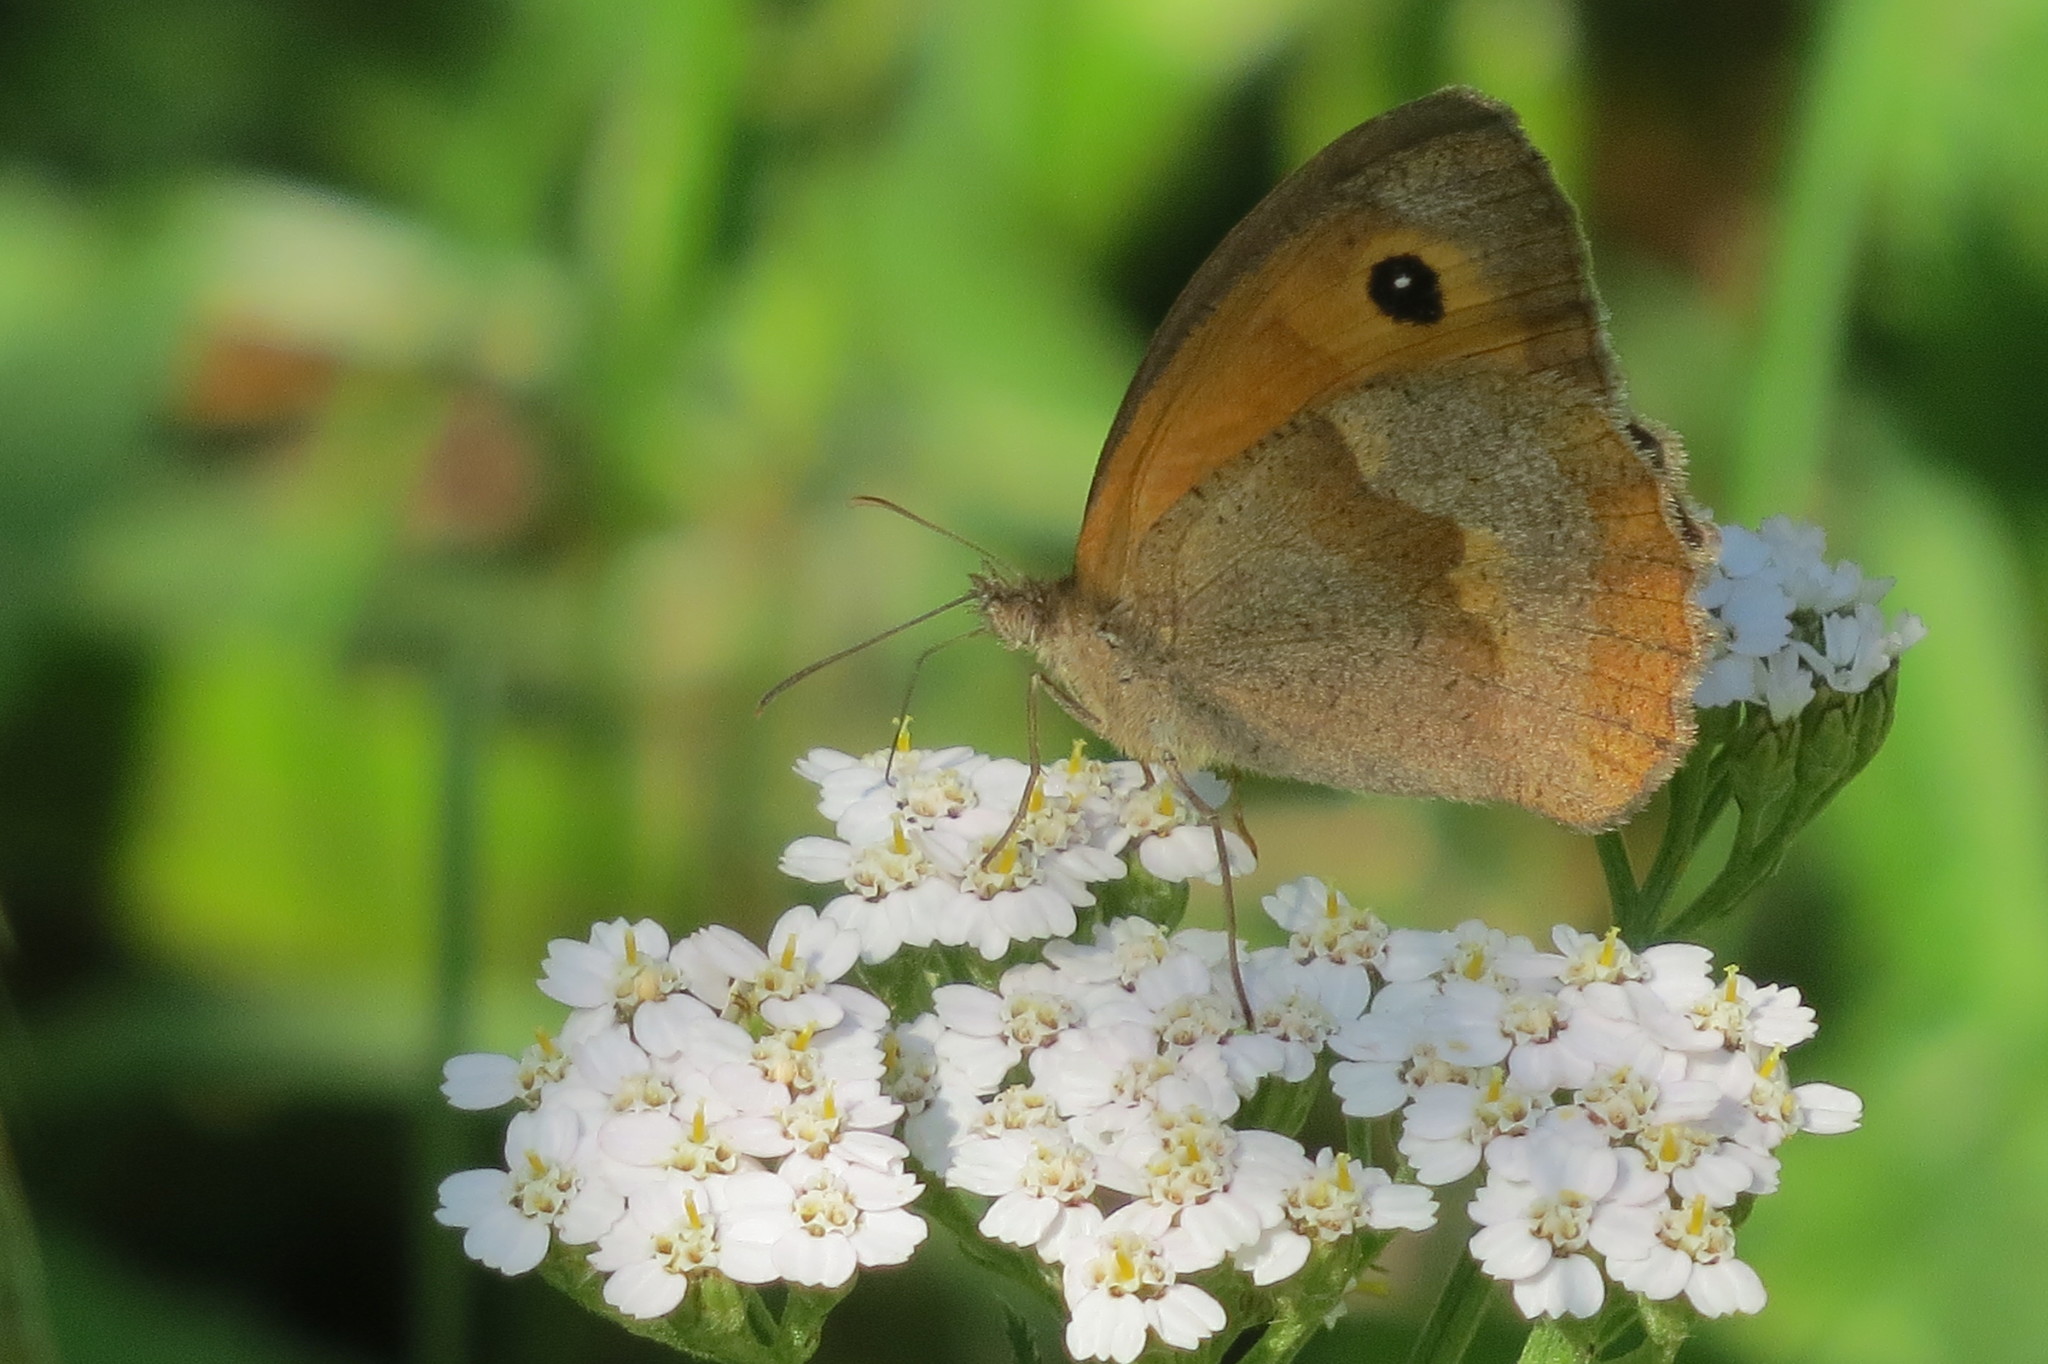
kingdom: Animalia
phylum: Arthropoda
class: Insecta
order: Lepidoptera
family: Nymphalidae
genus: Maniola
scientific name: Maniola jurtina
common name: Meadow brown
